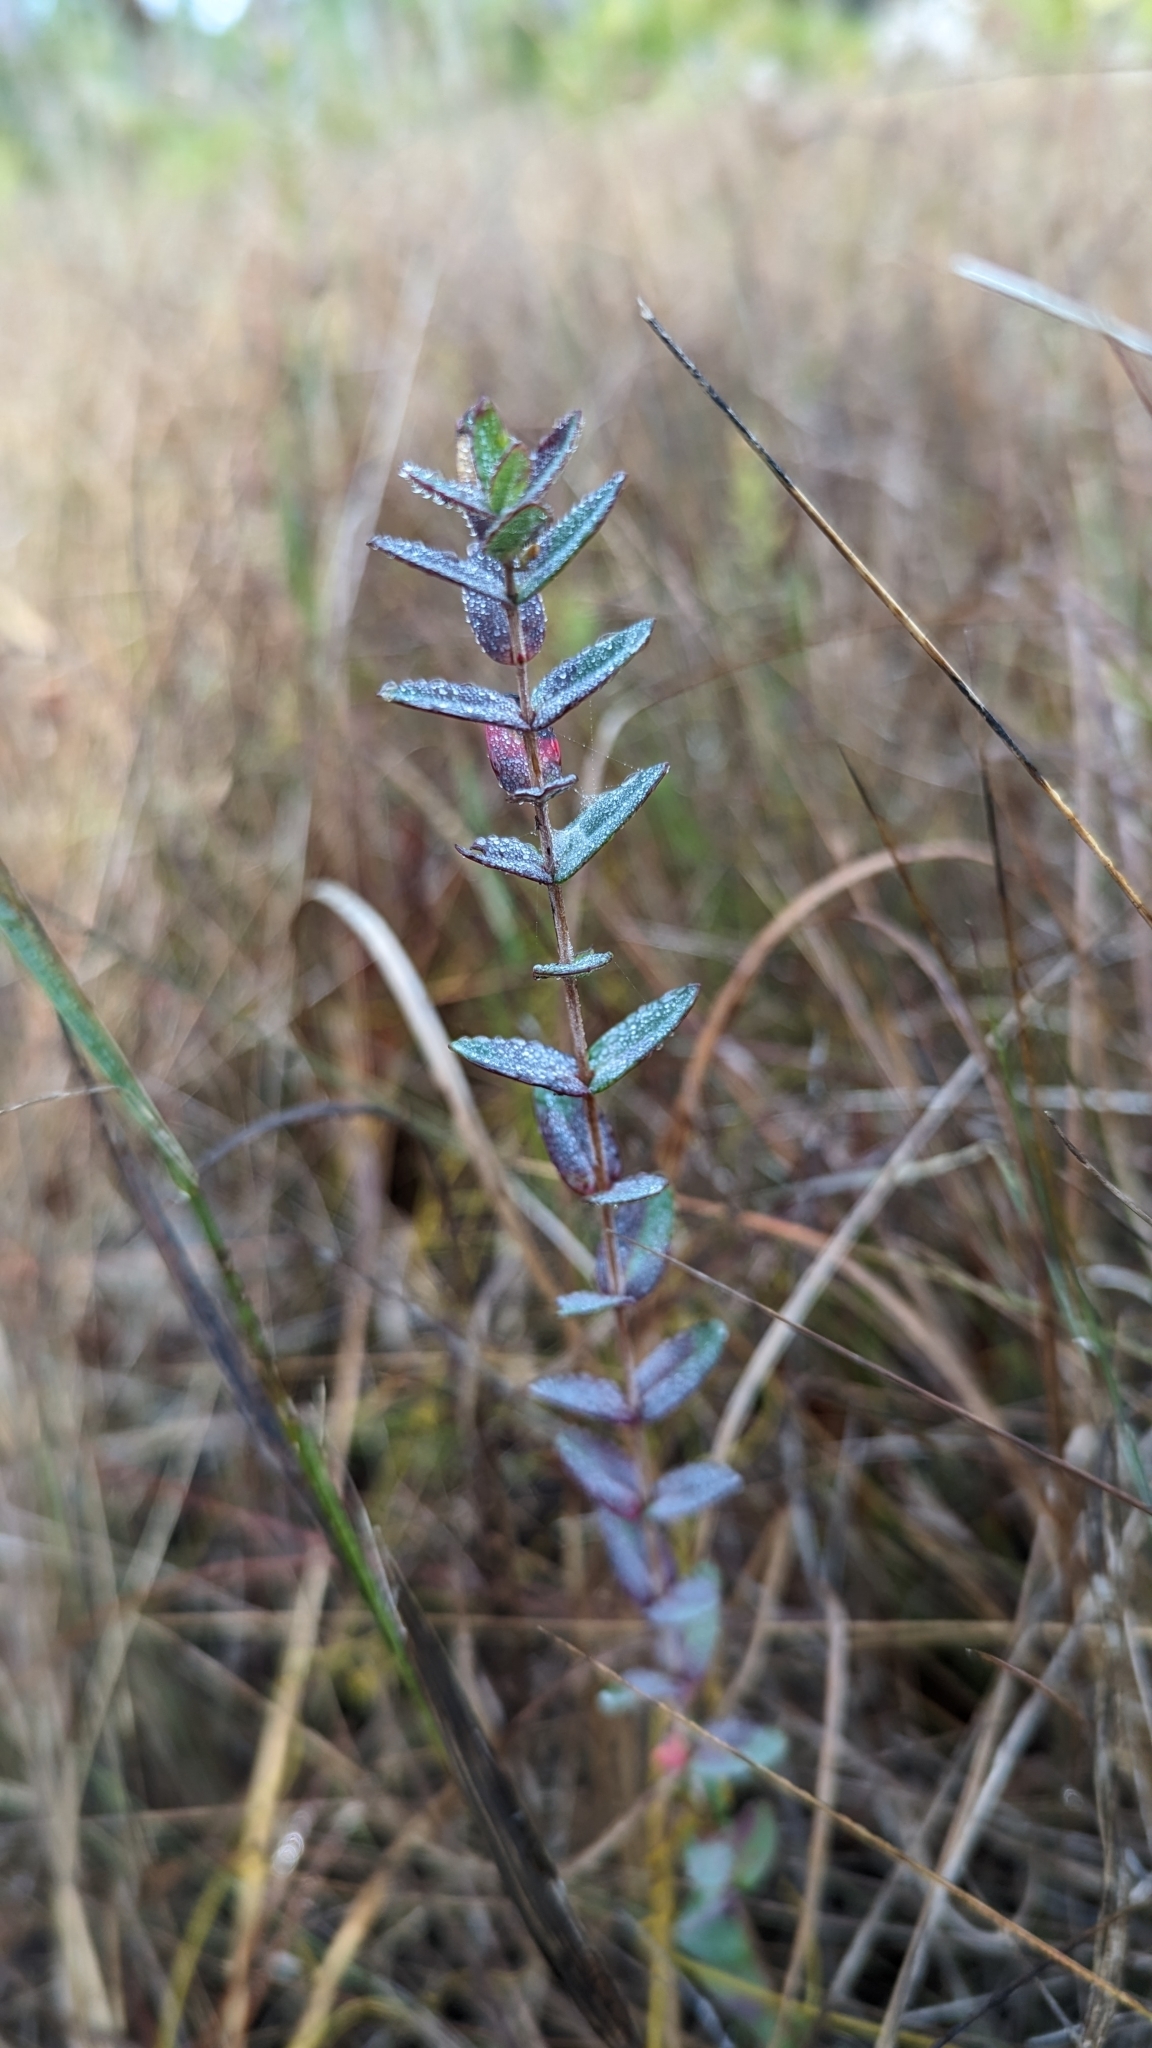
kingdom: Plantae
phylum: Tracheophyta
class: Magnoliopsida
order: Malpighiales
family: Hypericaceae
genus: Hypericum
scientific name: Hypericum myrtifolium
